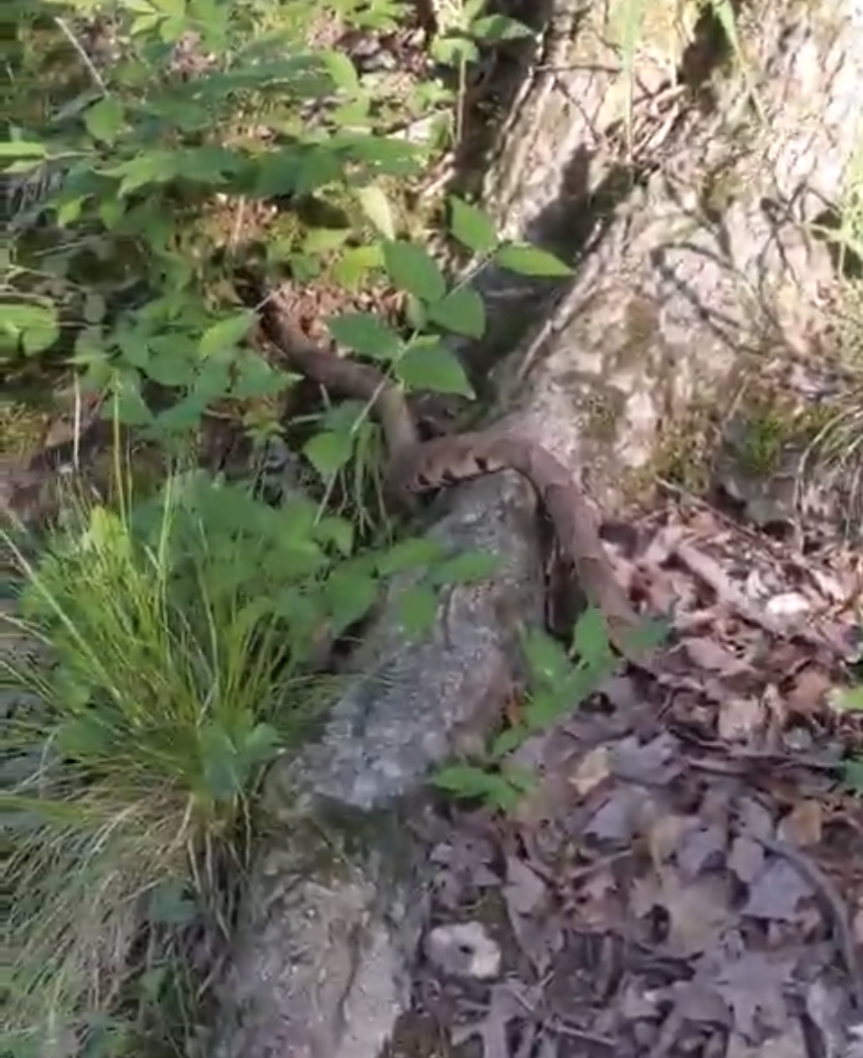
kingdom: Animalia
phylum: Chordata
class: Squamata
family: Viperidae
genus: Agkistrodon
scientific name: Agkistrodon contortrix
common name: Northern copperhead
